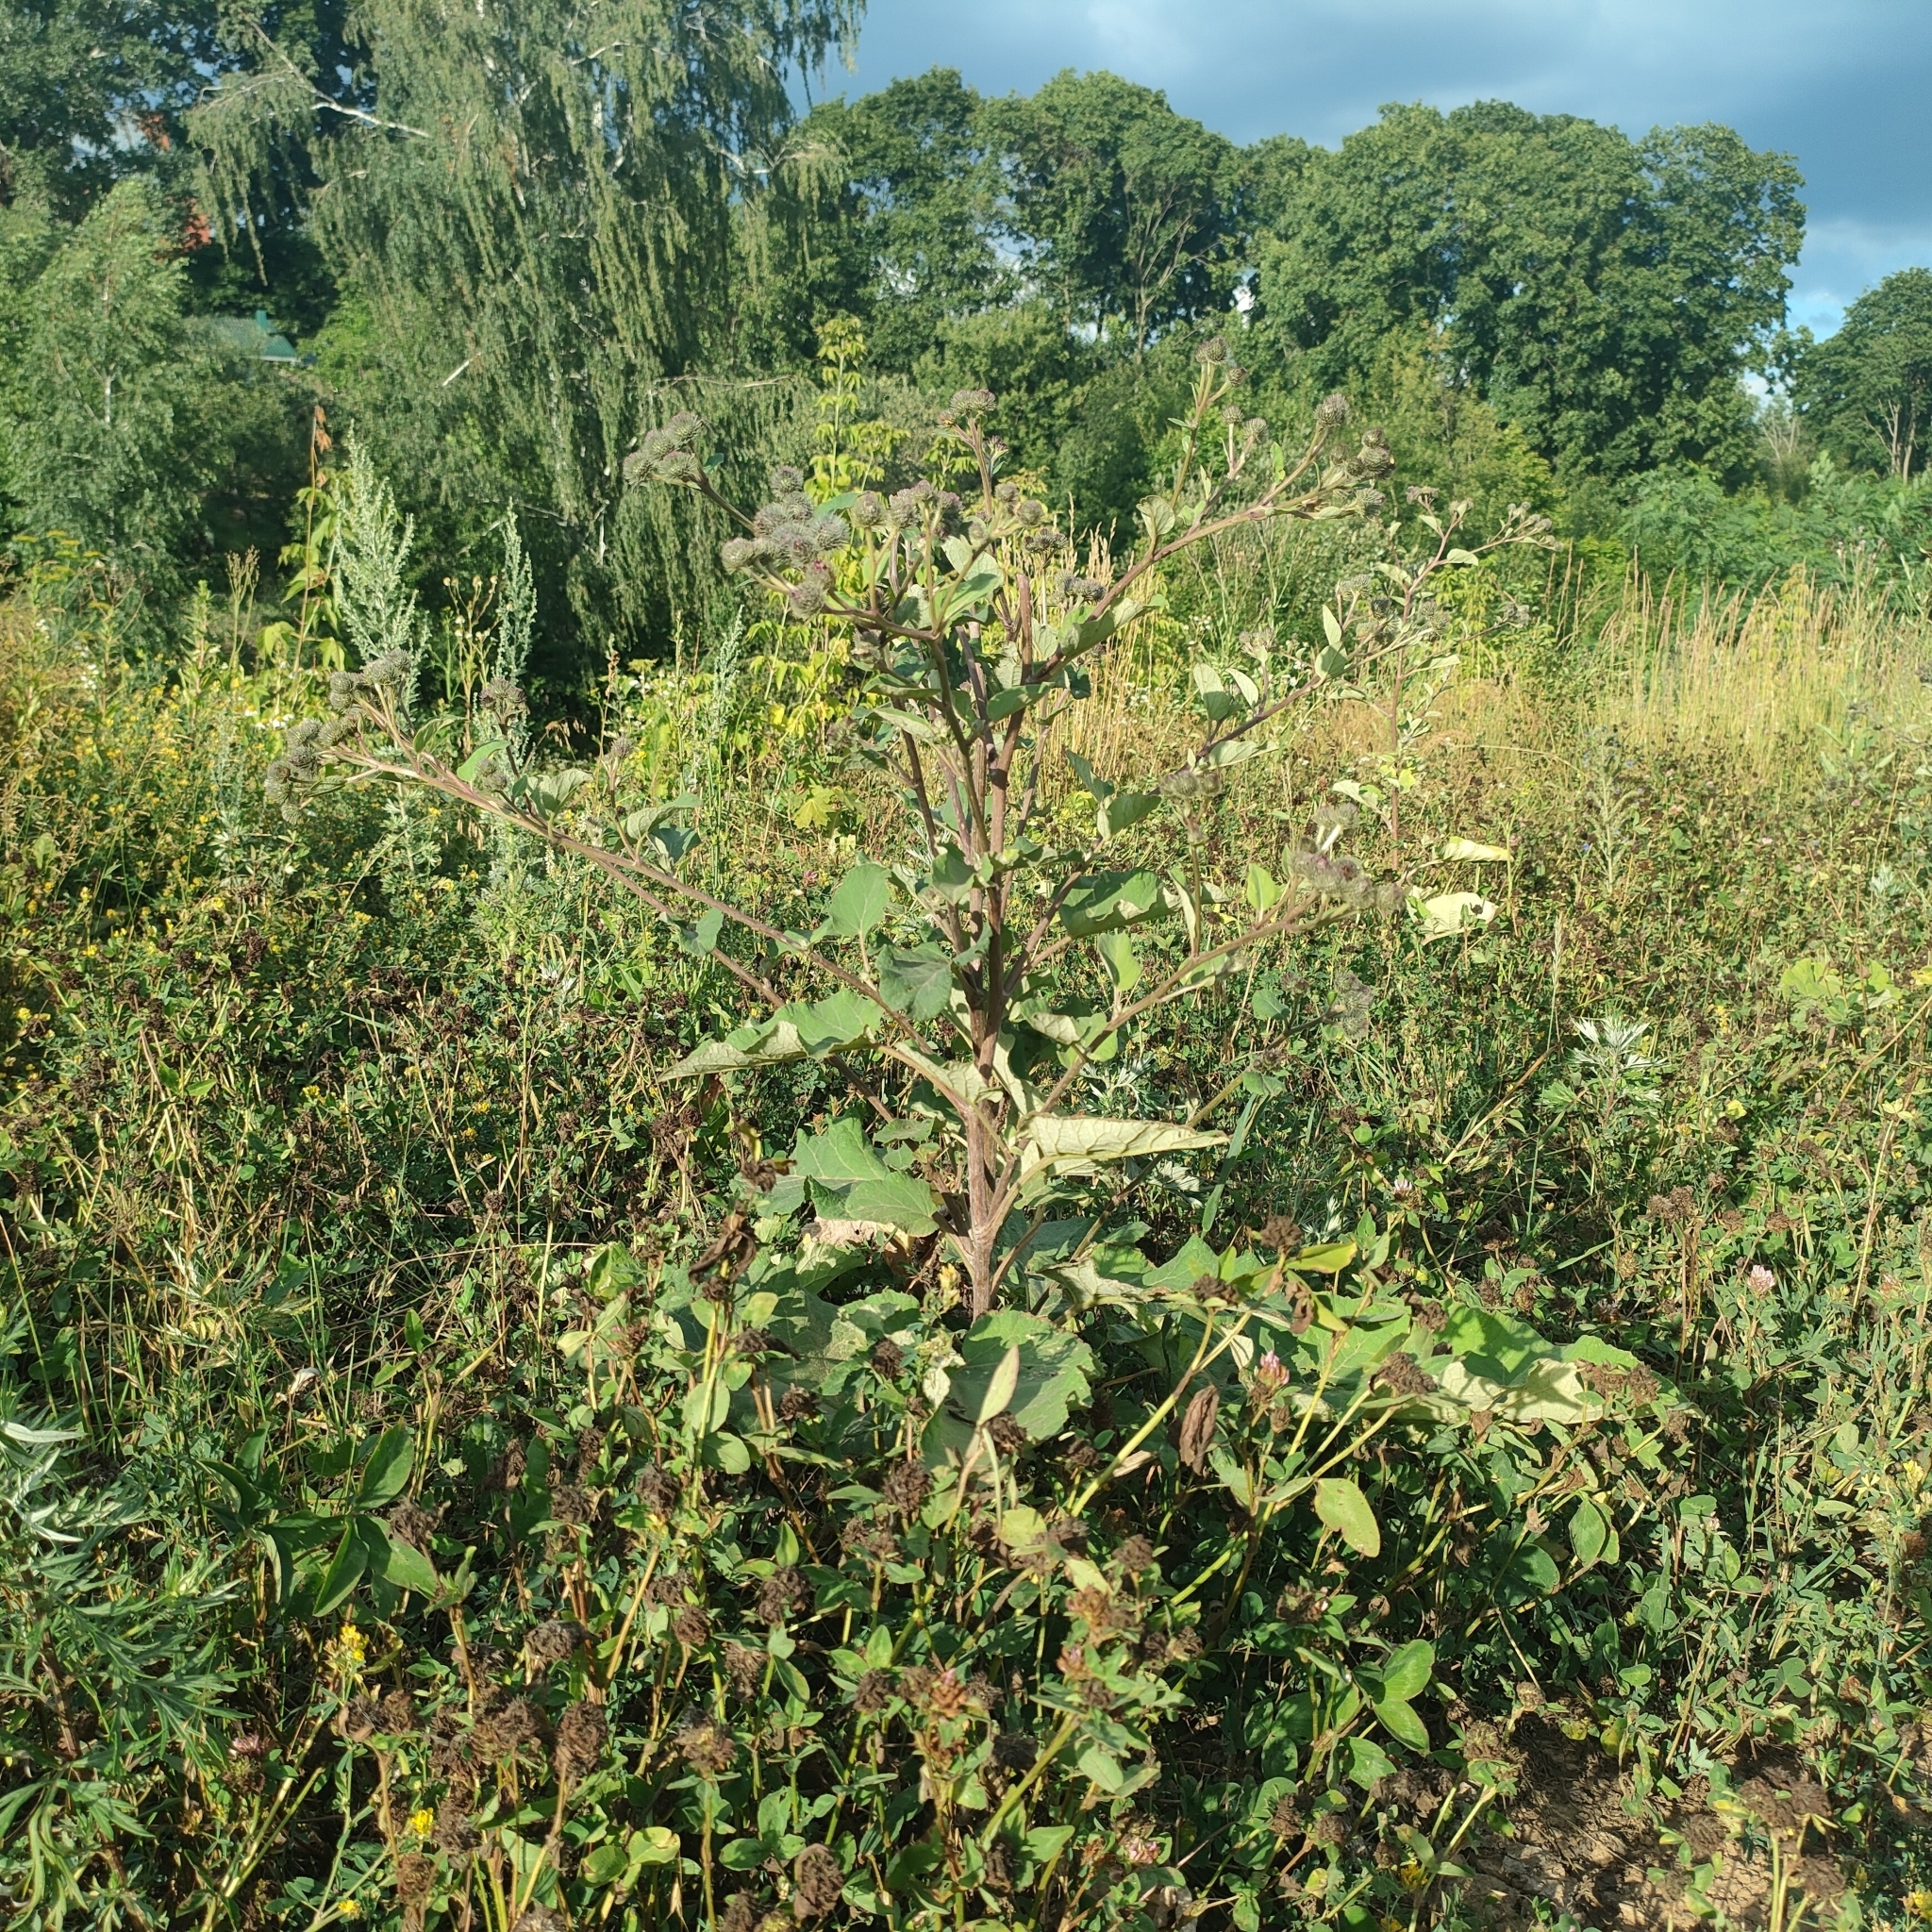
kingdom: Plantae
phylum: Tracheophyta
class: Magnoliopsida
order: Asterales
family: Asteraceae
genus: Arctium
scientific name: Arctium tomentosum
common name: Woolly burdock
